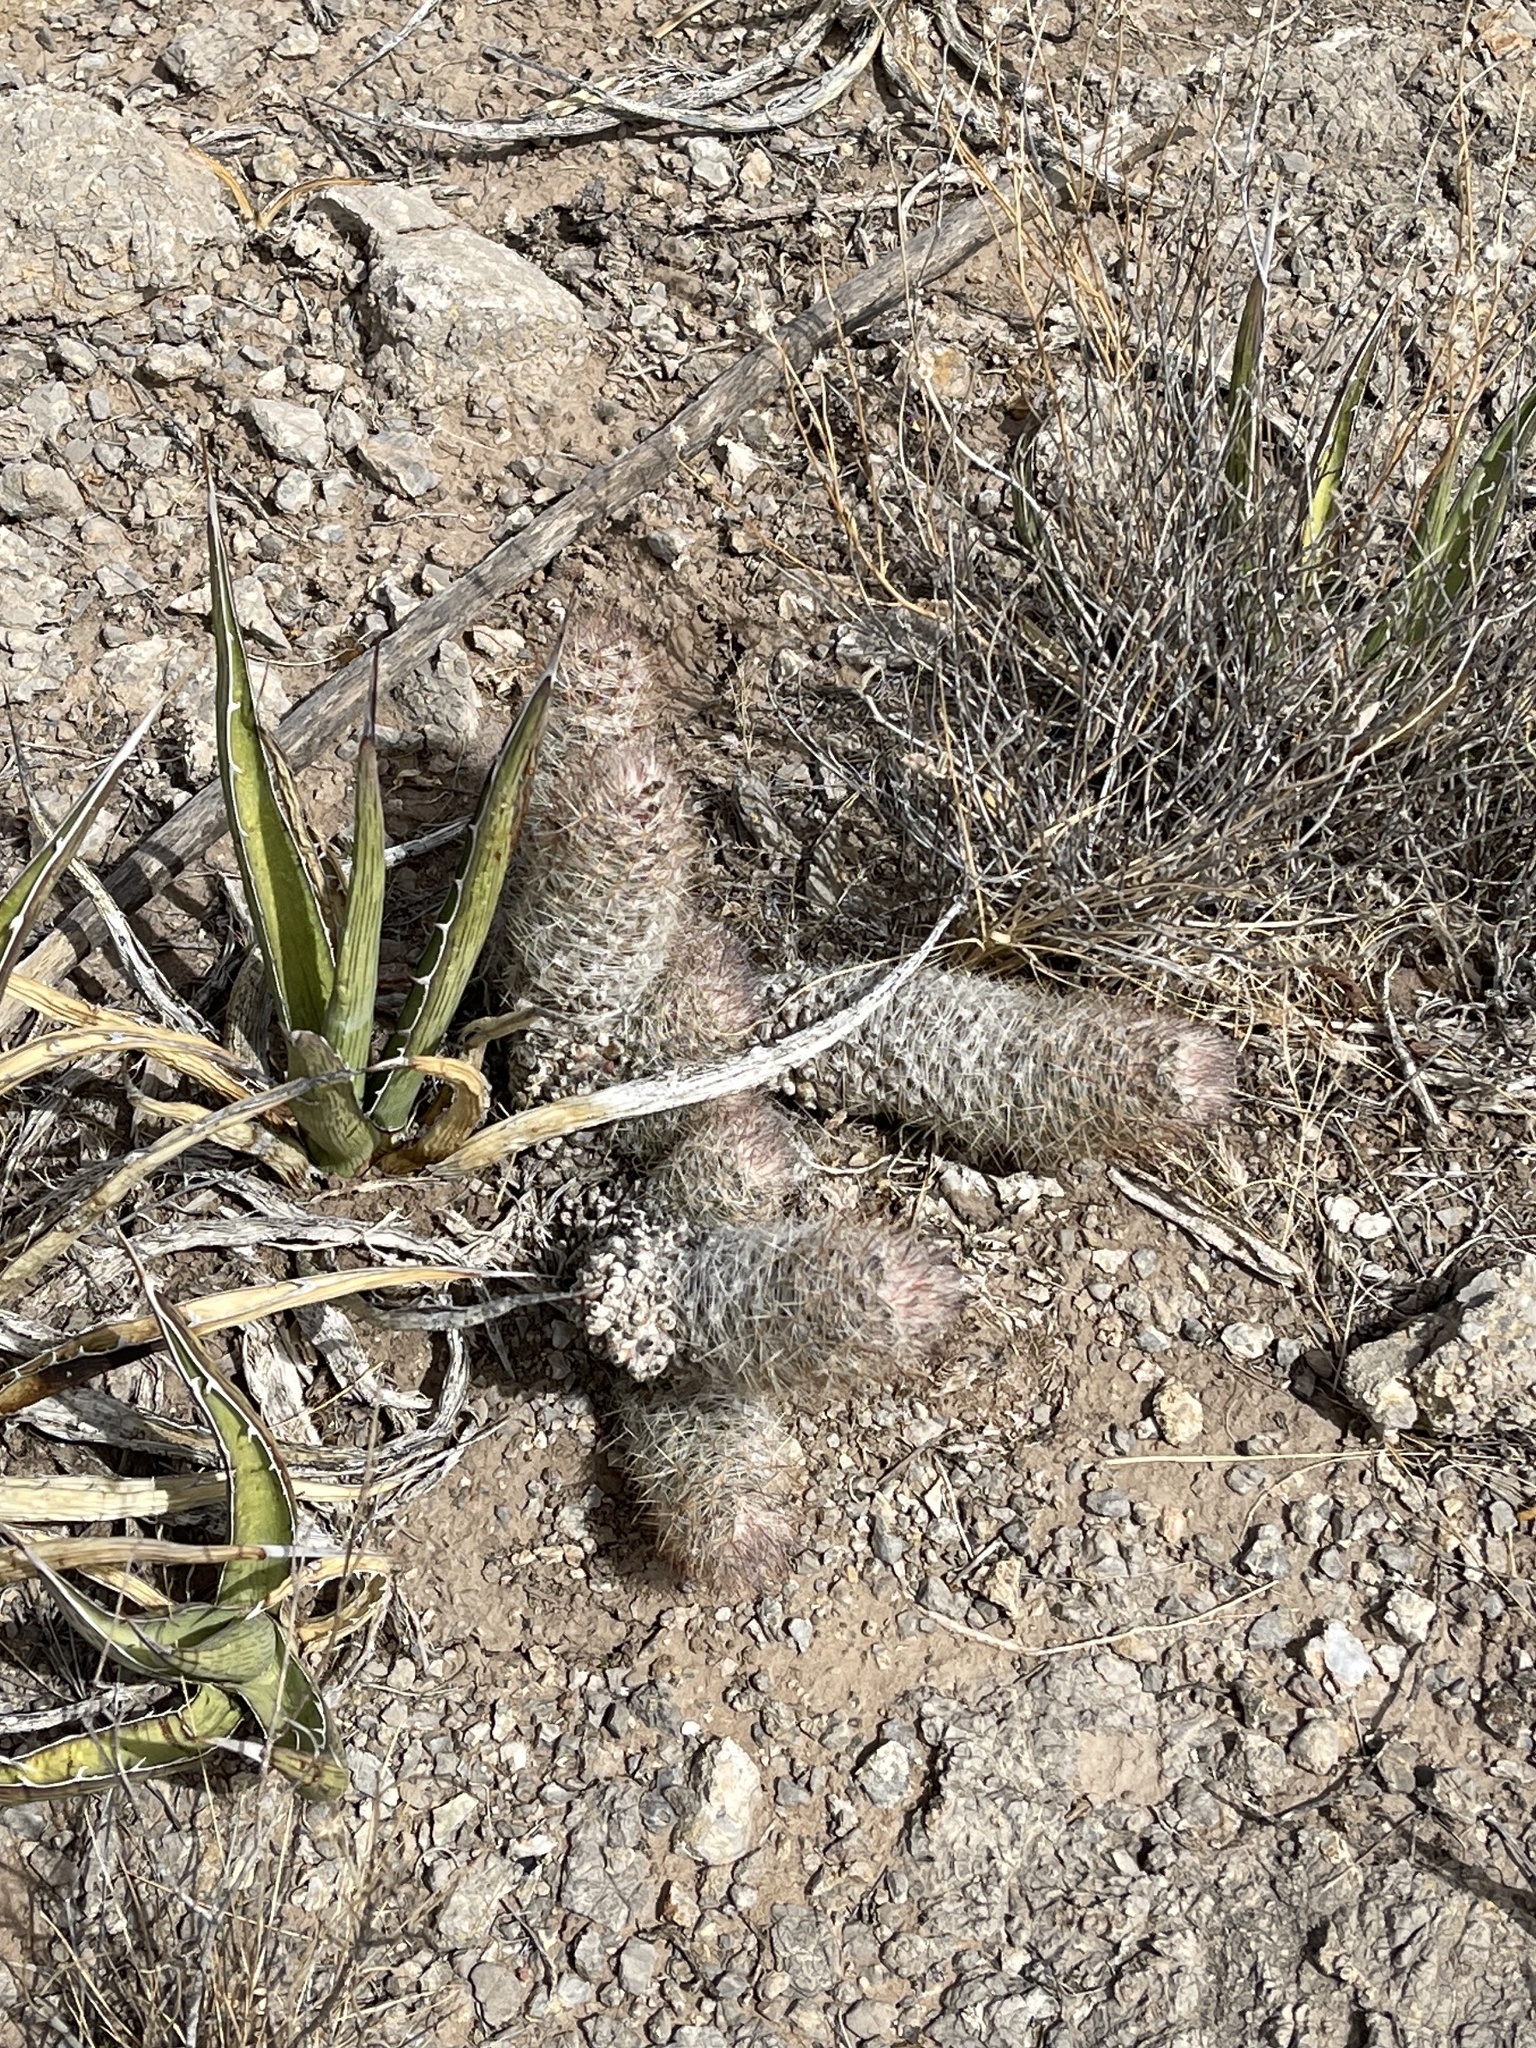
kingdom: Plantae
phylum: Tracheophyta
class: Magnoliopsida
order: Caryophyllales
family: Cactaceae
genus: Pelecyphora
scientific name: Pelecyphora tuberculosa
